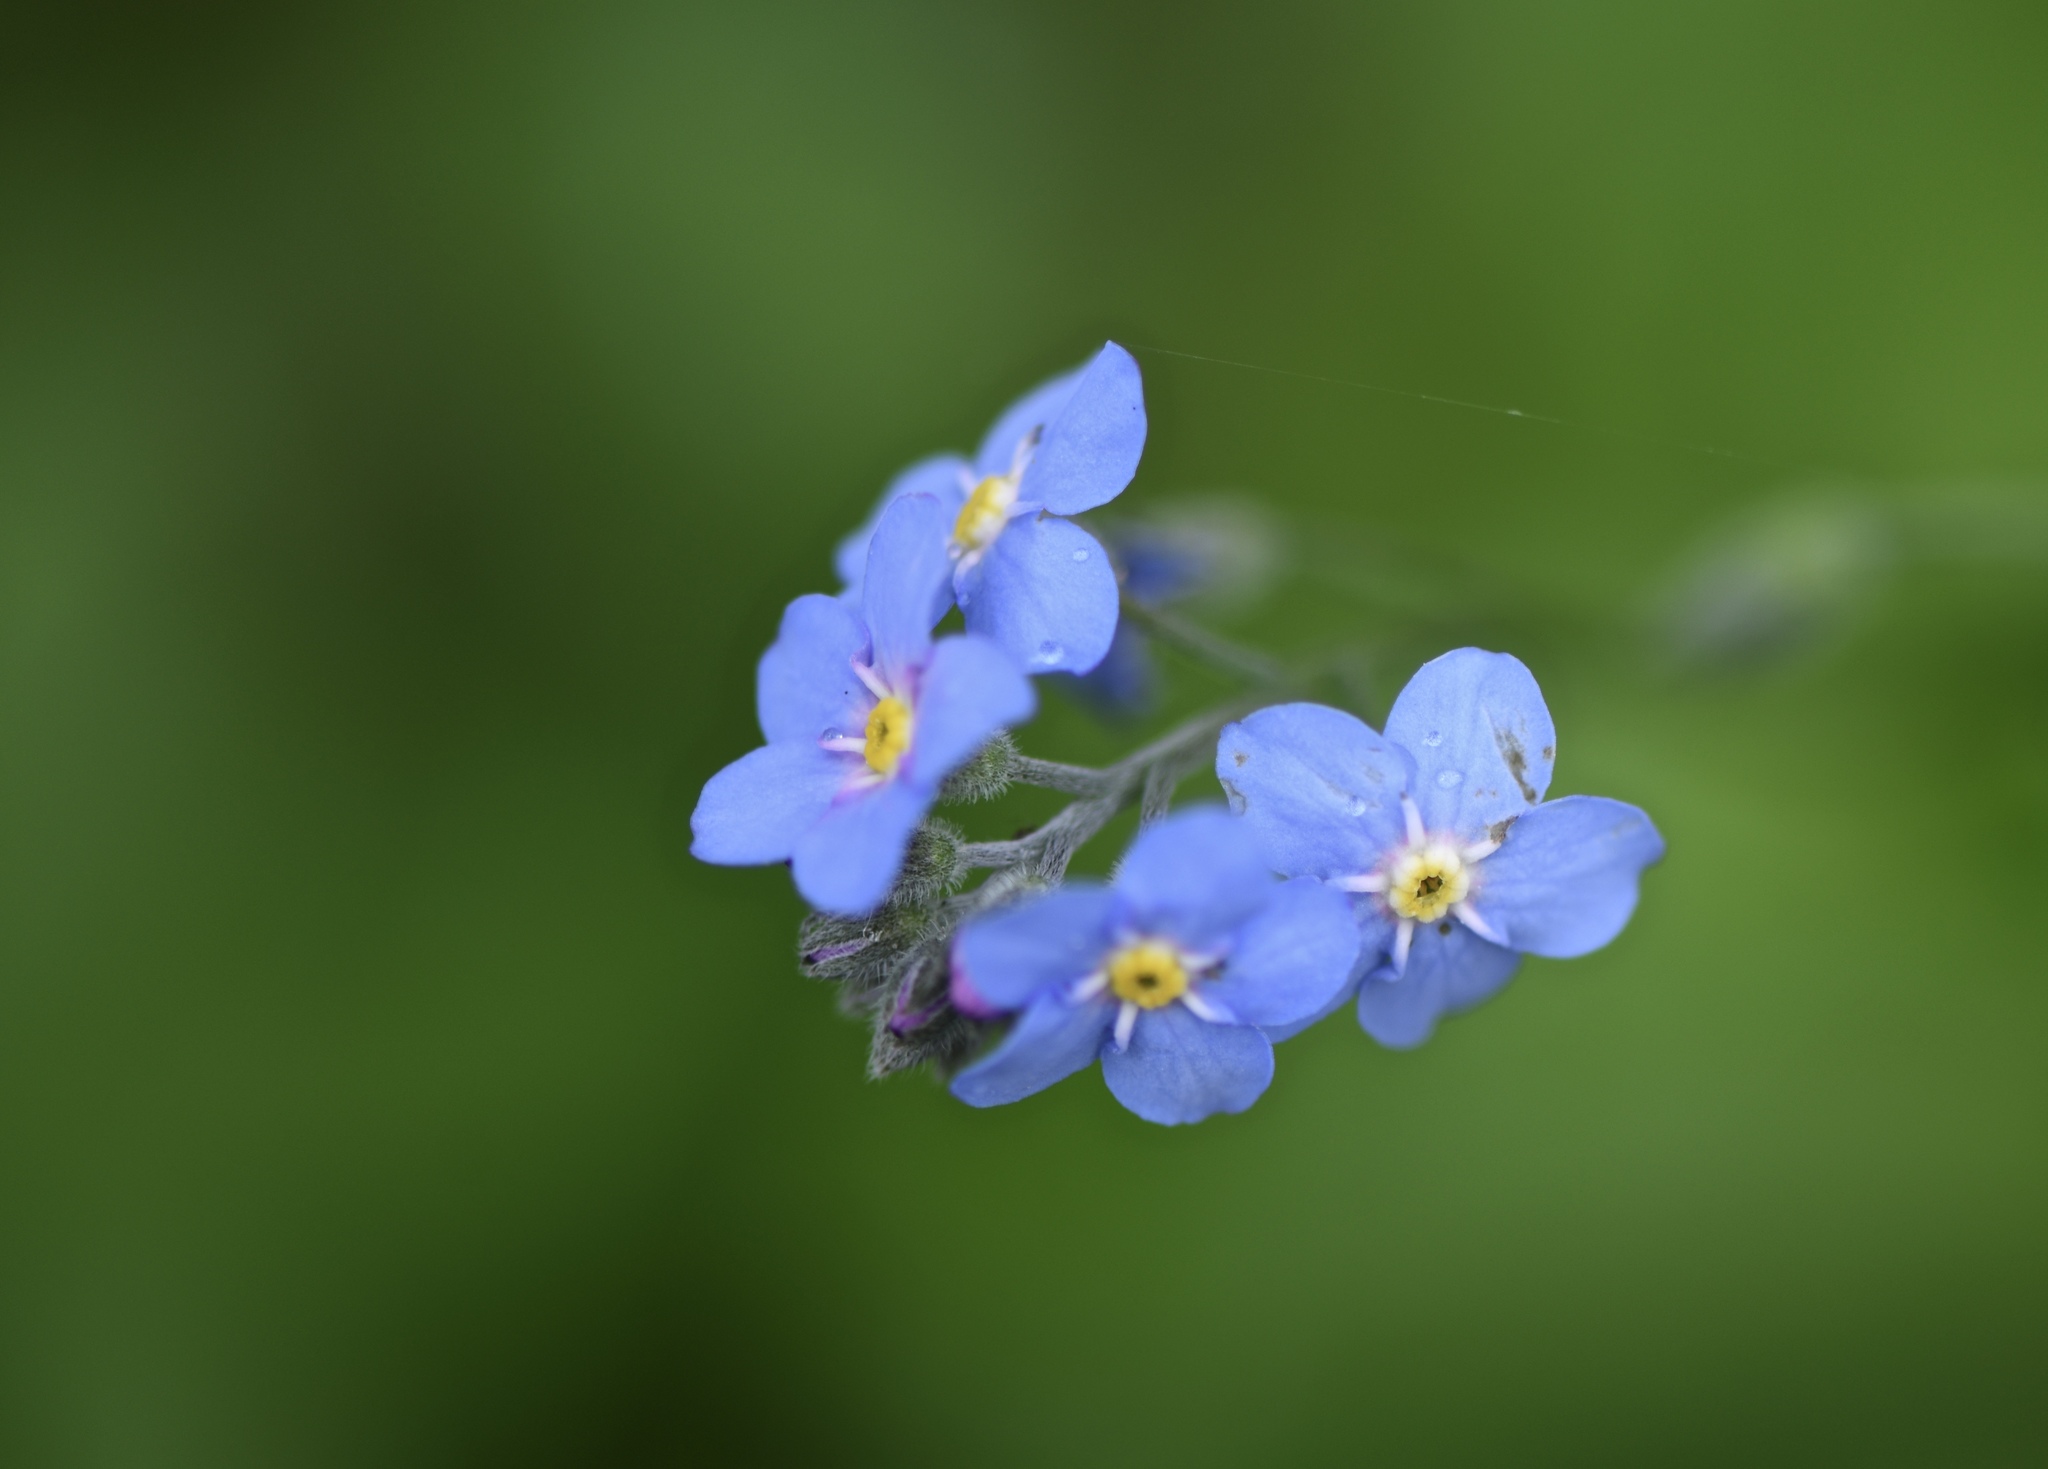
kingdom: Plantae
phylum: Tracheophyta
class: Magnoliopsida
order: Boraginales
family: Boraginaceae
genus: Myosotis
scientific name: Myosotis latifolia
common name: Broadleaf forget-me-not
